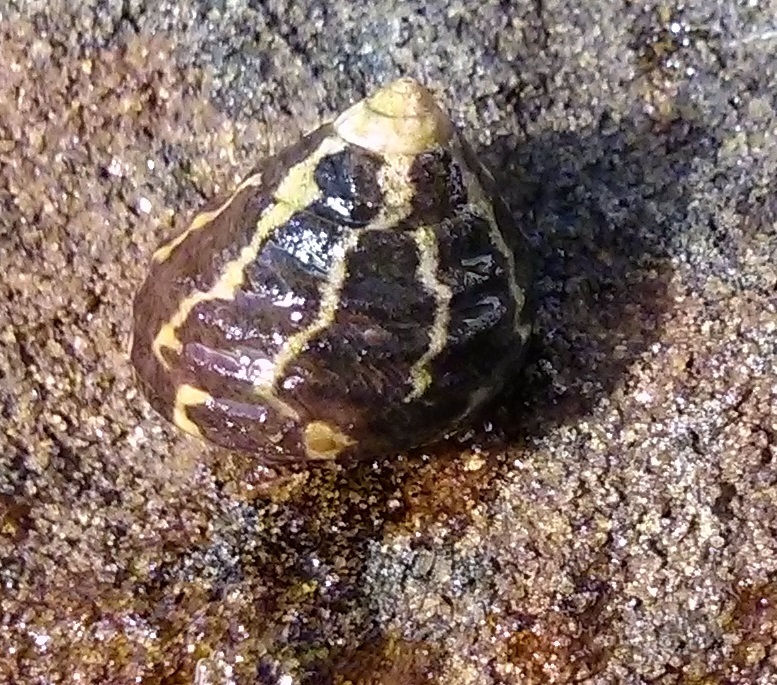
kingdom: Animalia
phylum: Mollusca
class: Gastropoda
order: Trochida
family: Trochidae
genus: Austrocochlea
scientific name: Austrocochlea porcata
